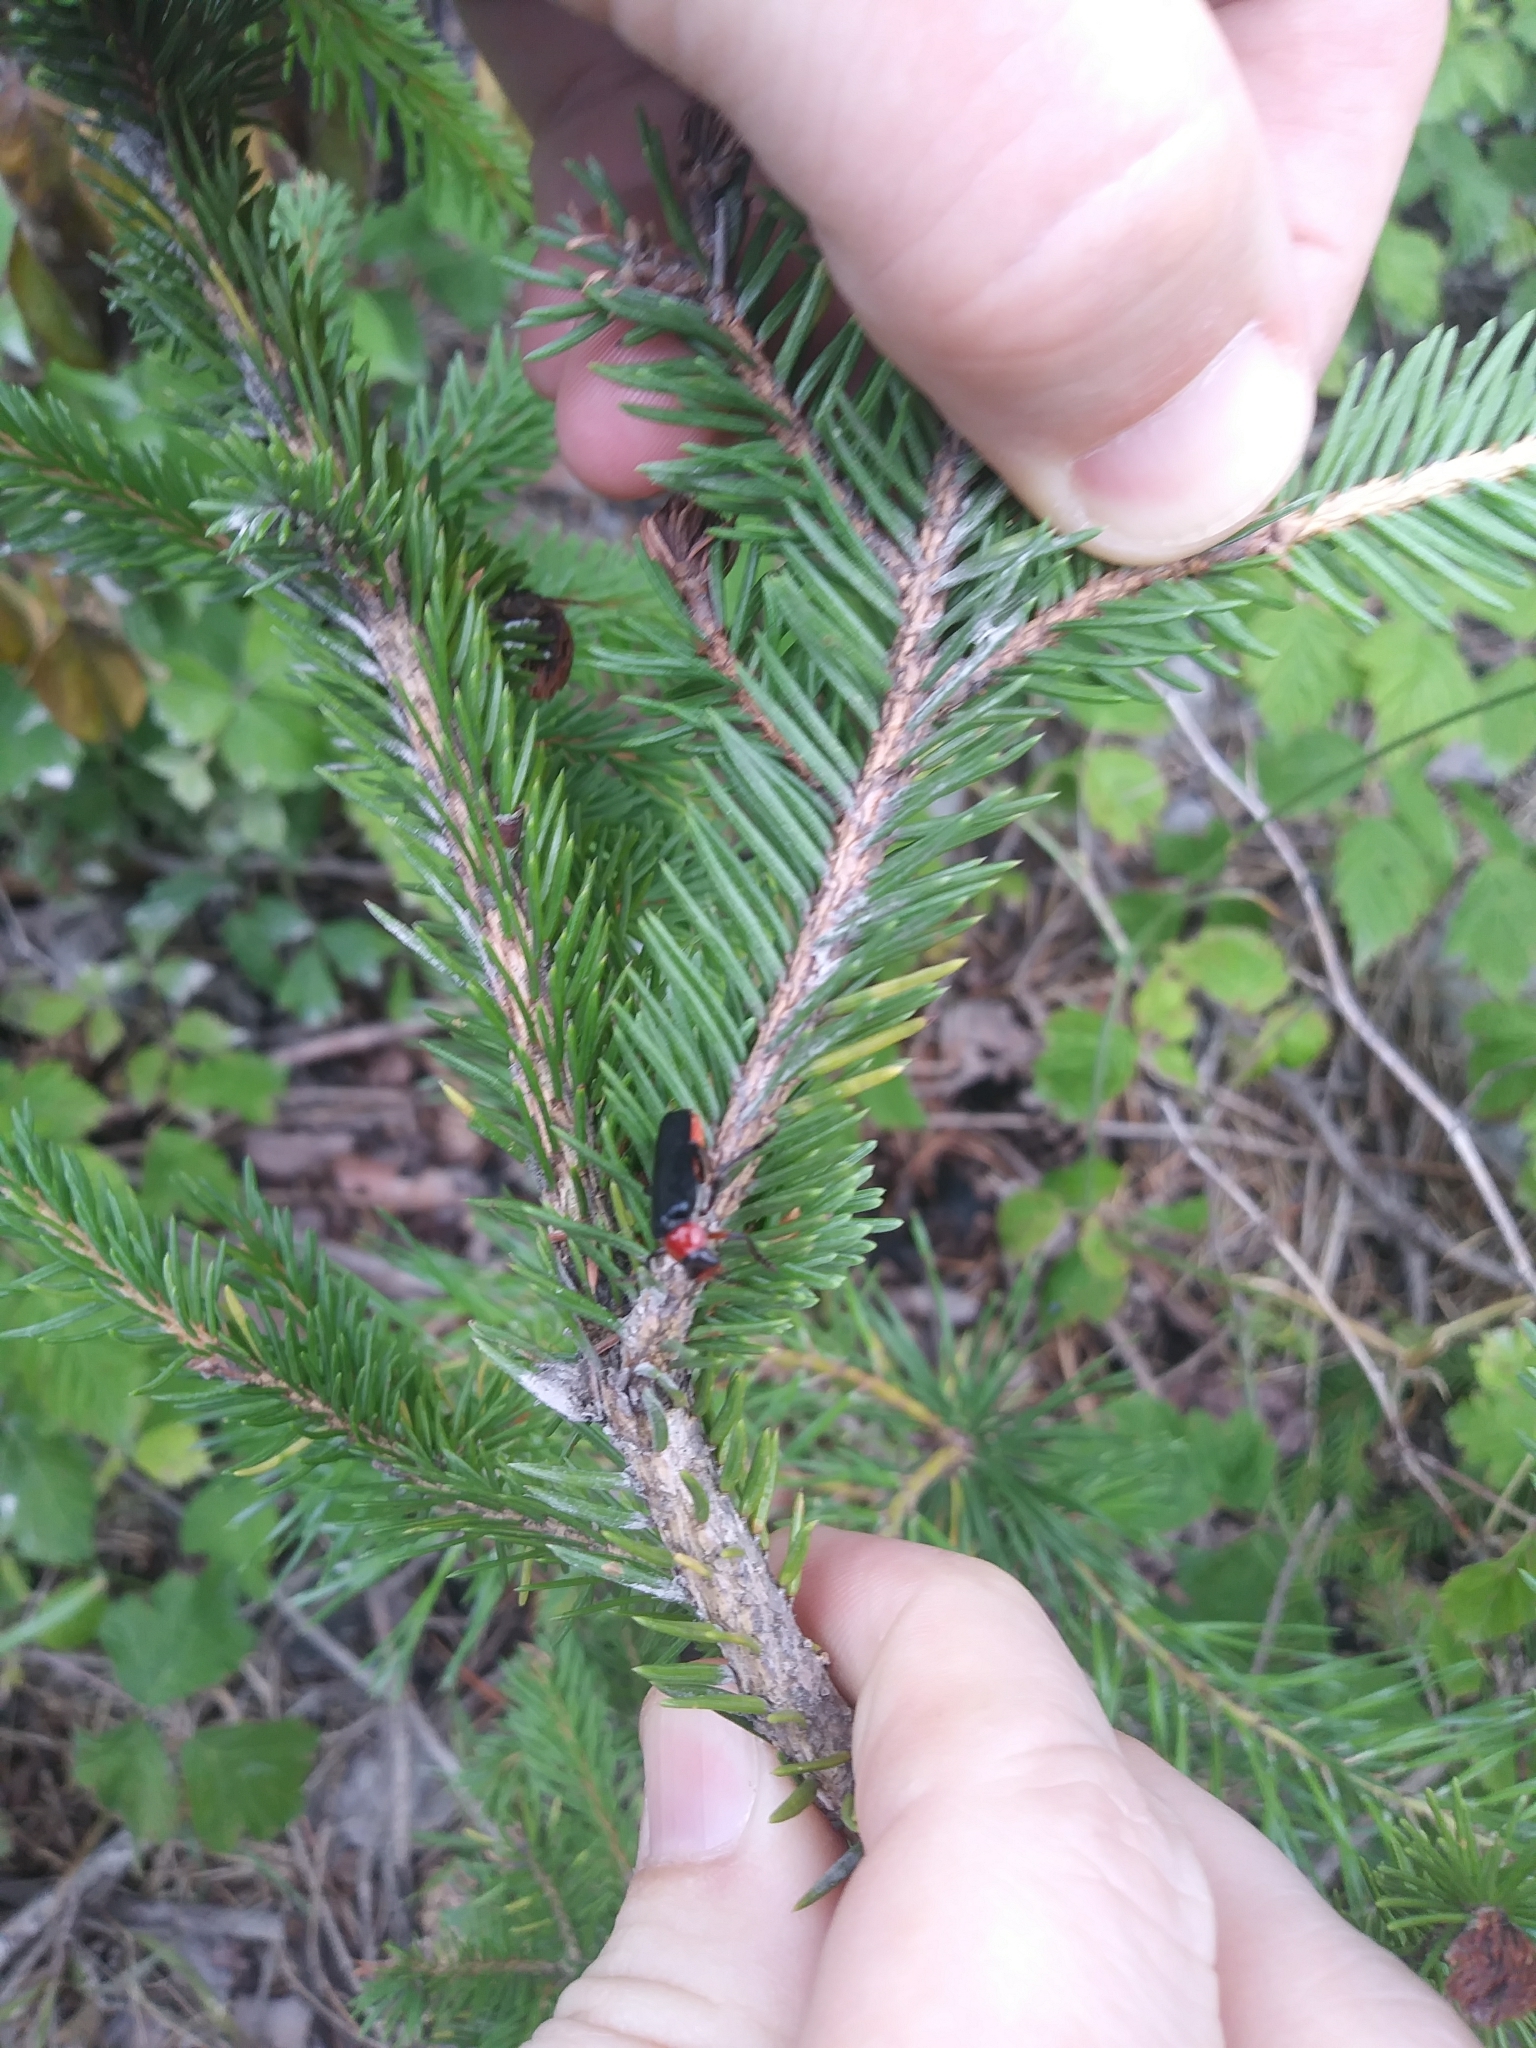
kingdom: Animalia
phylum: Arthropoda
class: Insecta
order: Coleoptera
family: Cantharidae
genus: Ancistronycha
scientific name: Ancistronycha abdominalis
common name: Blue soldier beetle
